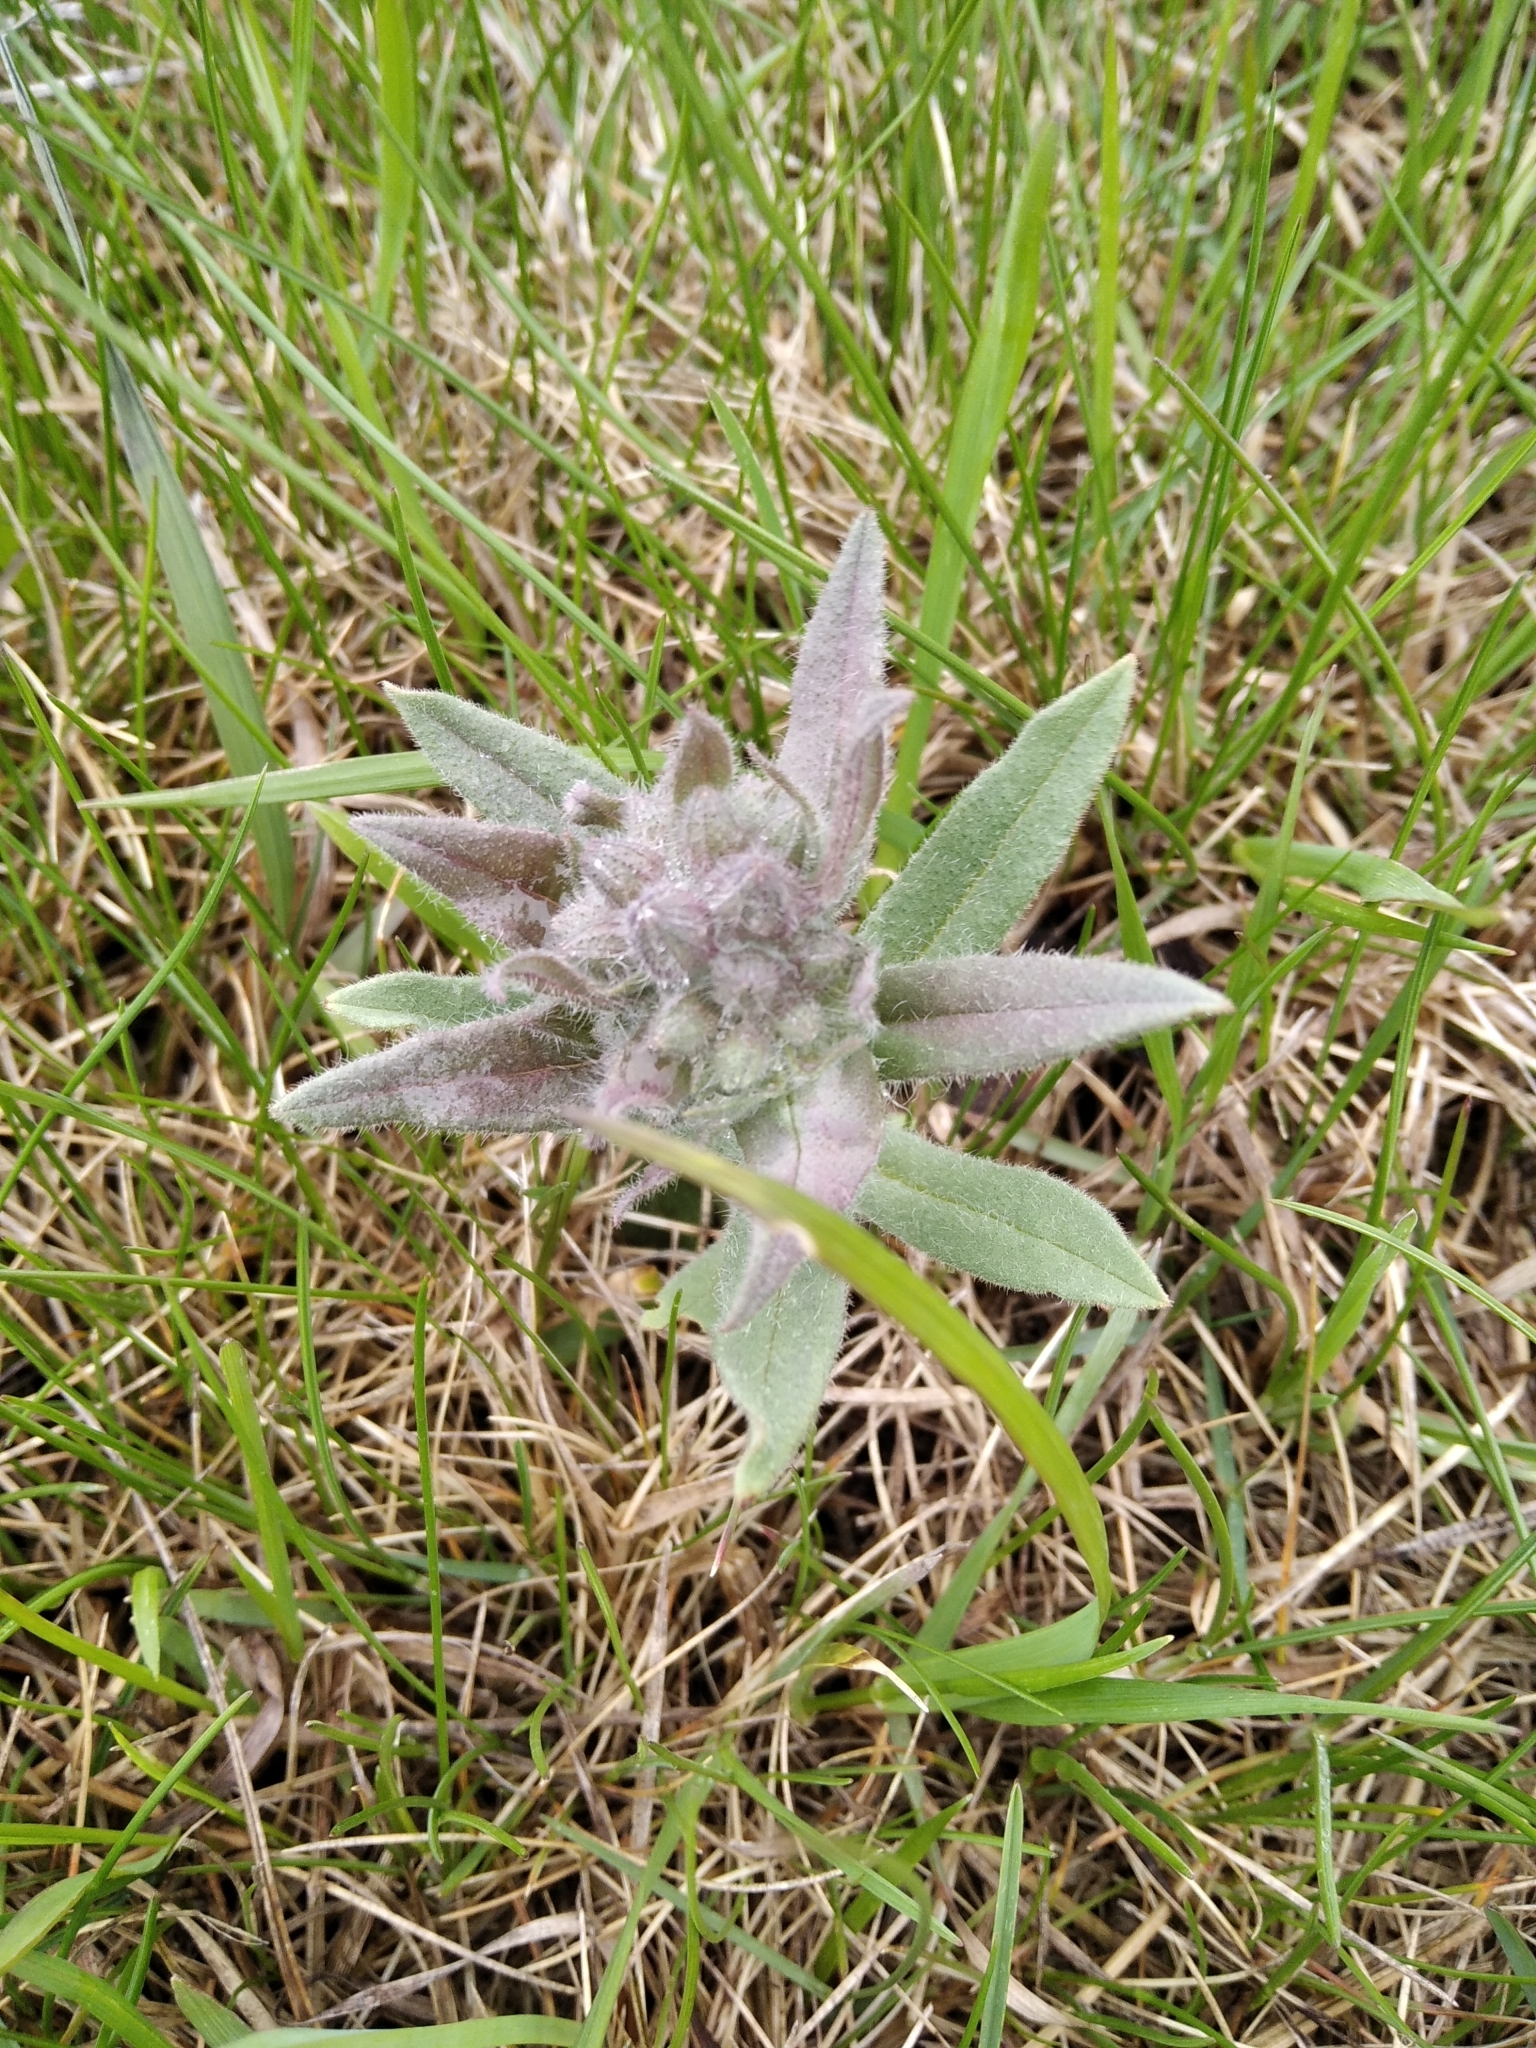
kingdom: Plantae
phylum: Tracheophyta
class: Magnoliopsida
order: Boraginales
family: Boraginaceae
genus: Nonea
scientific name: Nonea pulla
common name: Brown nonea
